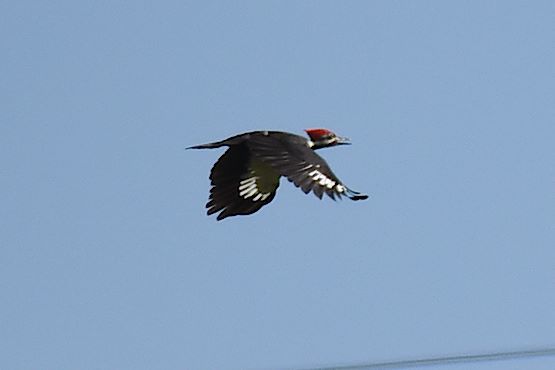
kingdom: Animalia
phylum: Chordata
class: Aves
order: Piciformes
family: Picidae
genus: Dryocopus
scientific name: Dryocopus pileatus
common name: Pileated woodpecker
